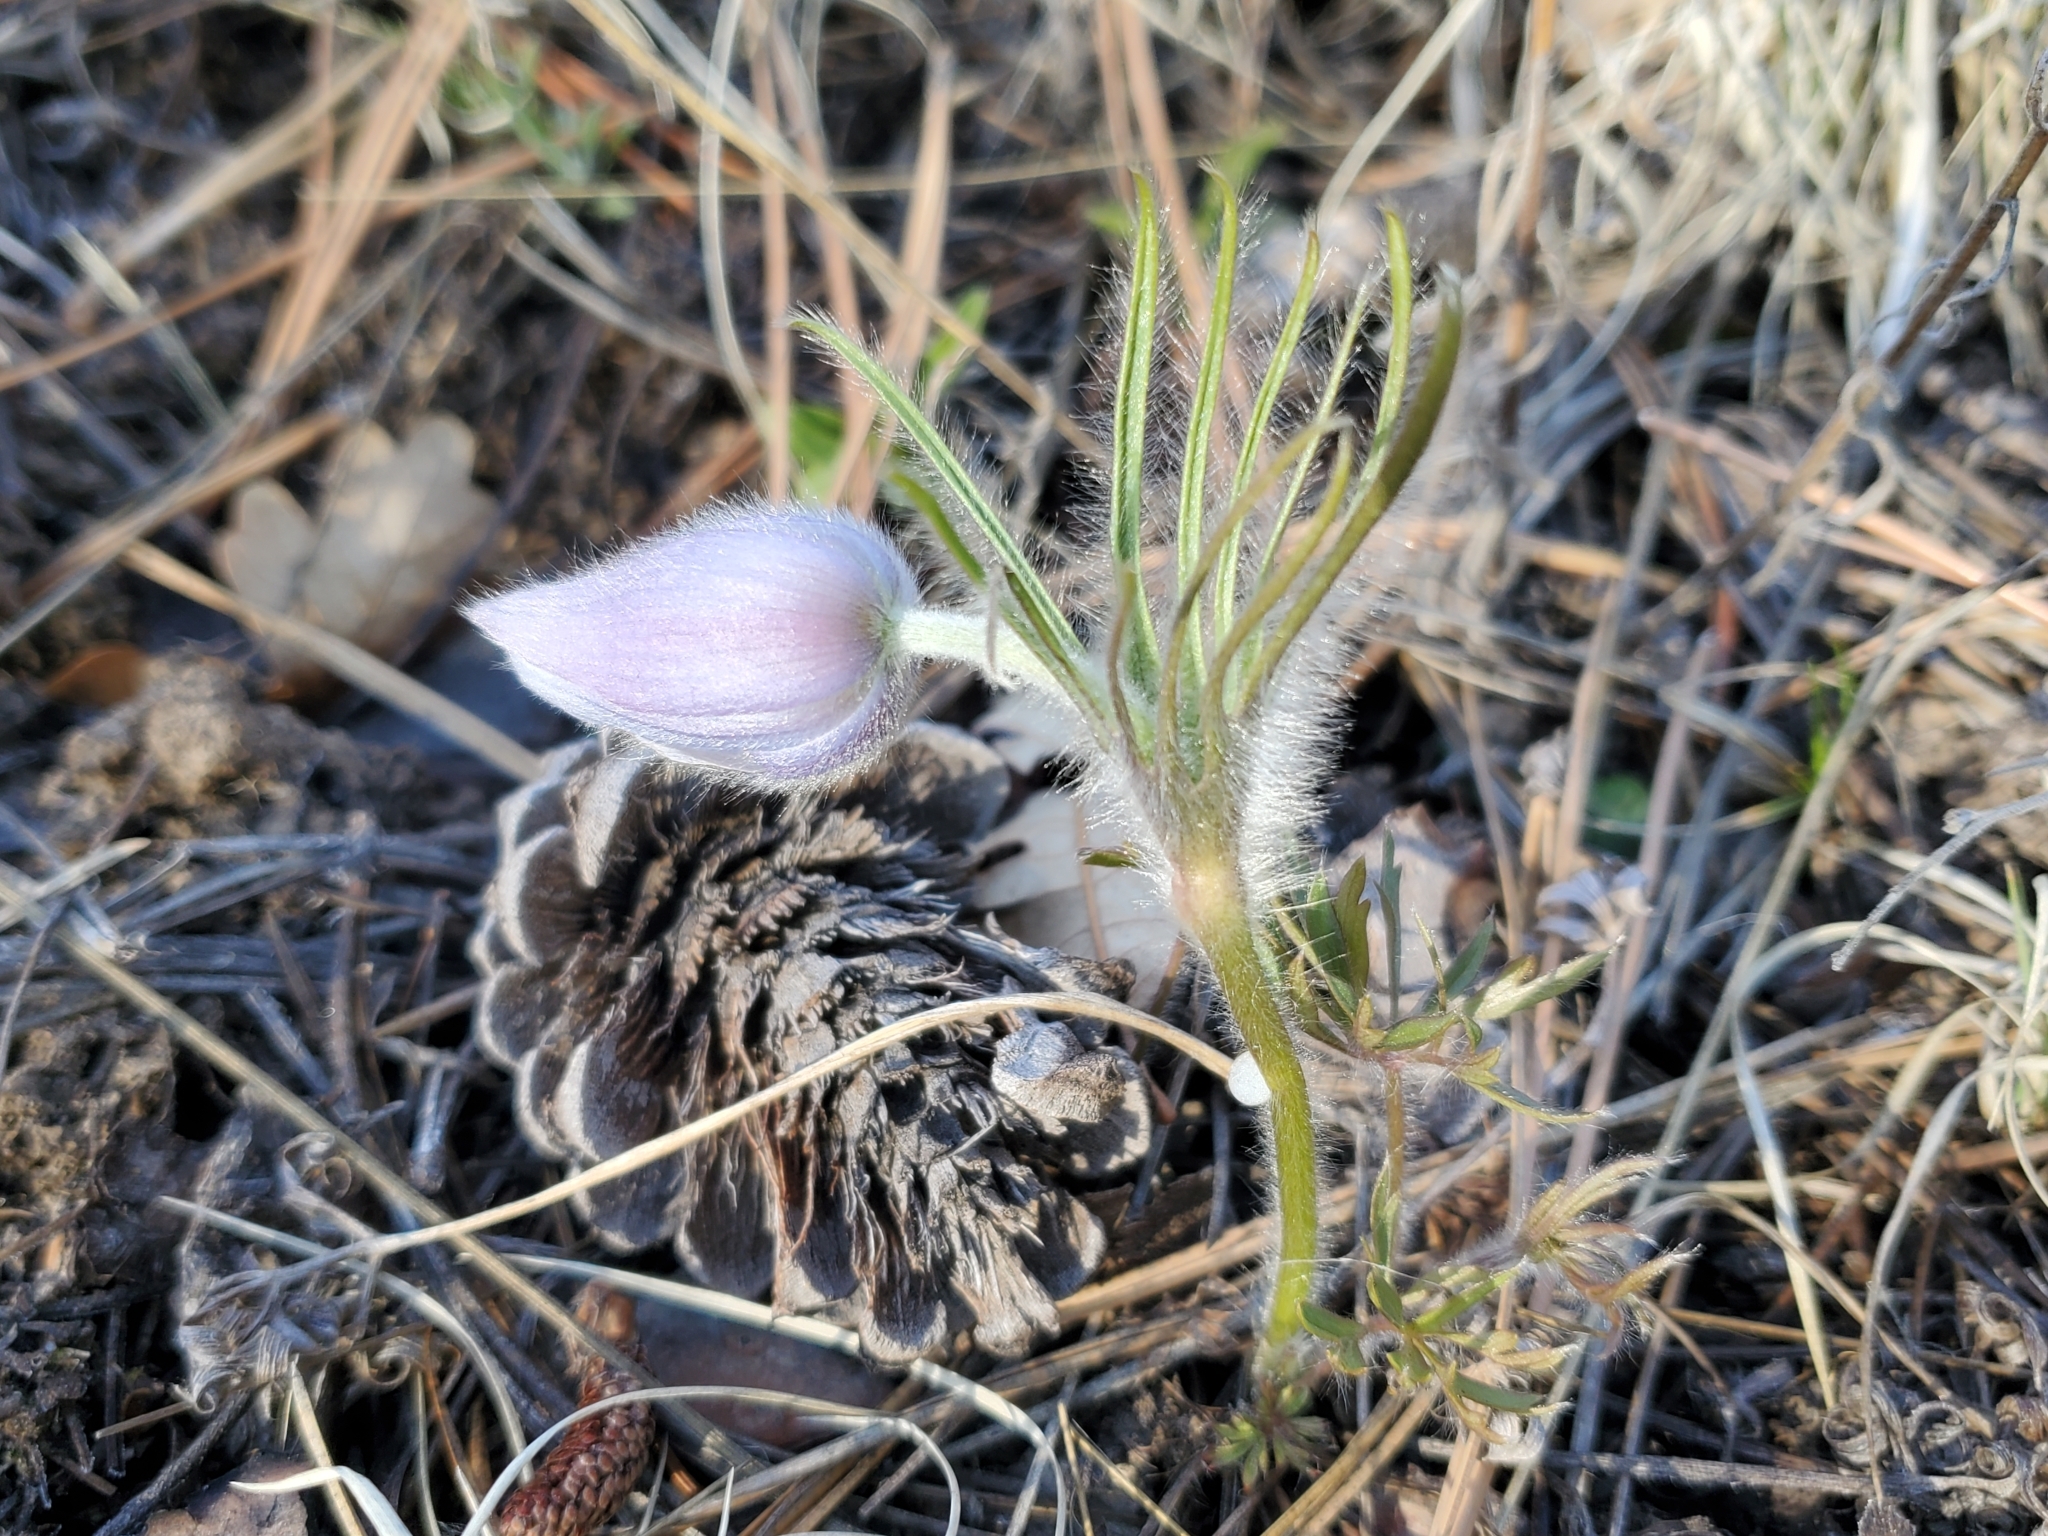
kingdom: Plantae
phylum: Tracheophyta
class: Magnoliopsida
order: Ranunculales
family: Ranunculaceae
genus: Pulsatilla
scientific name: Pulsatilla nuttalliana
